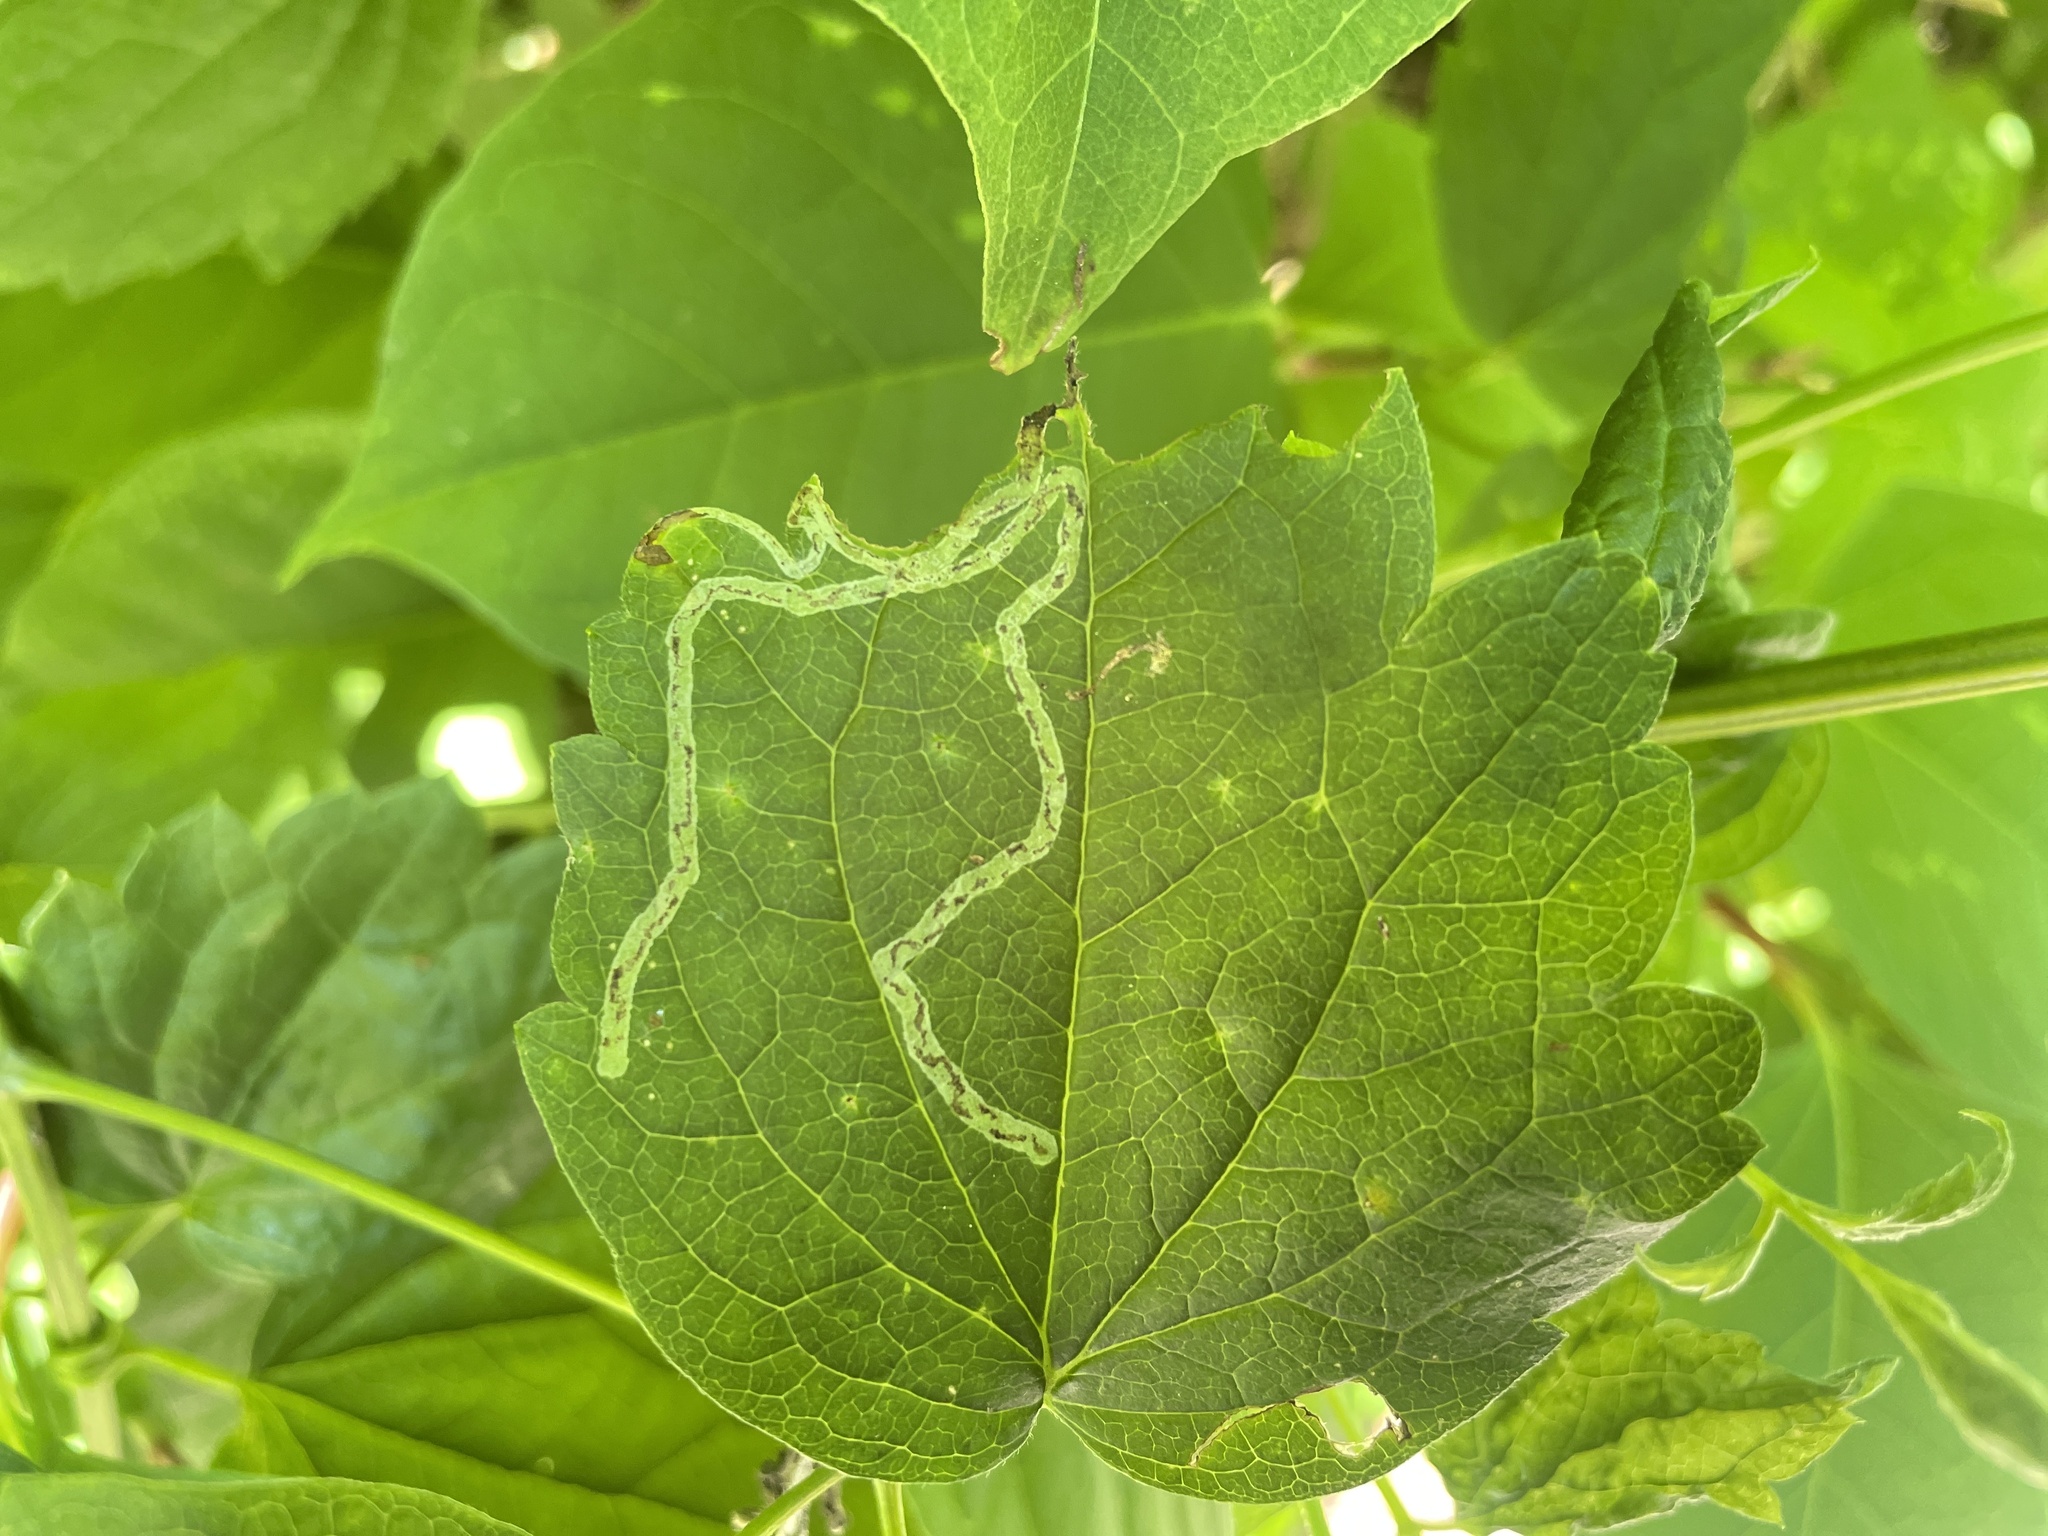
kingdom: Animalia
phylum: Arthropoda
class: Insecta
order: Diptera
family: Agromyzidae
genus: Phytomyza
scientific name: Phytomyza loewii
